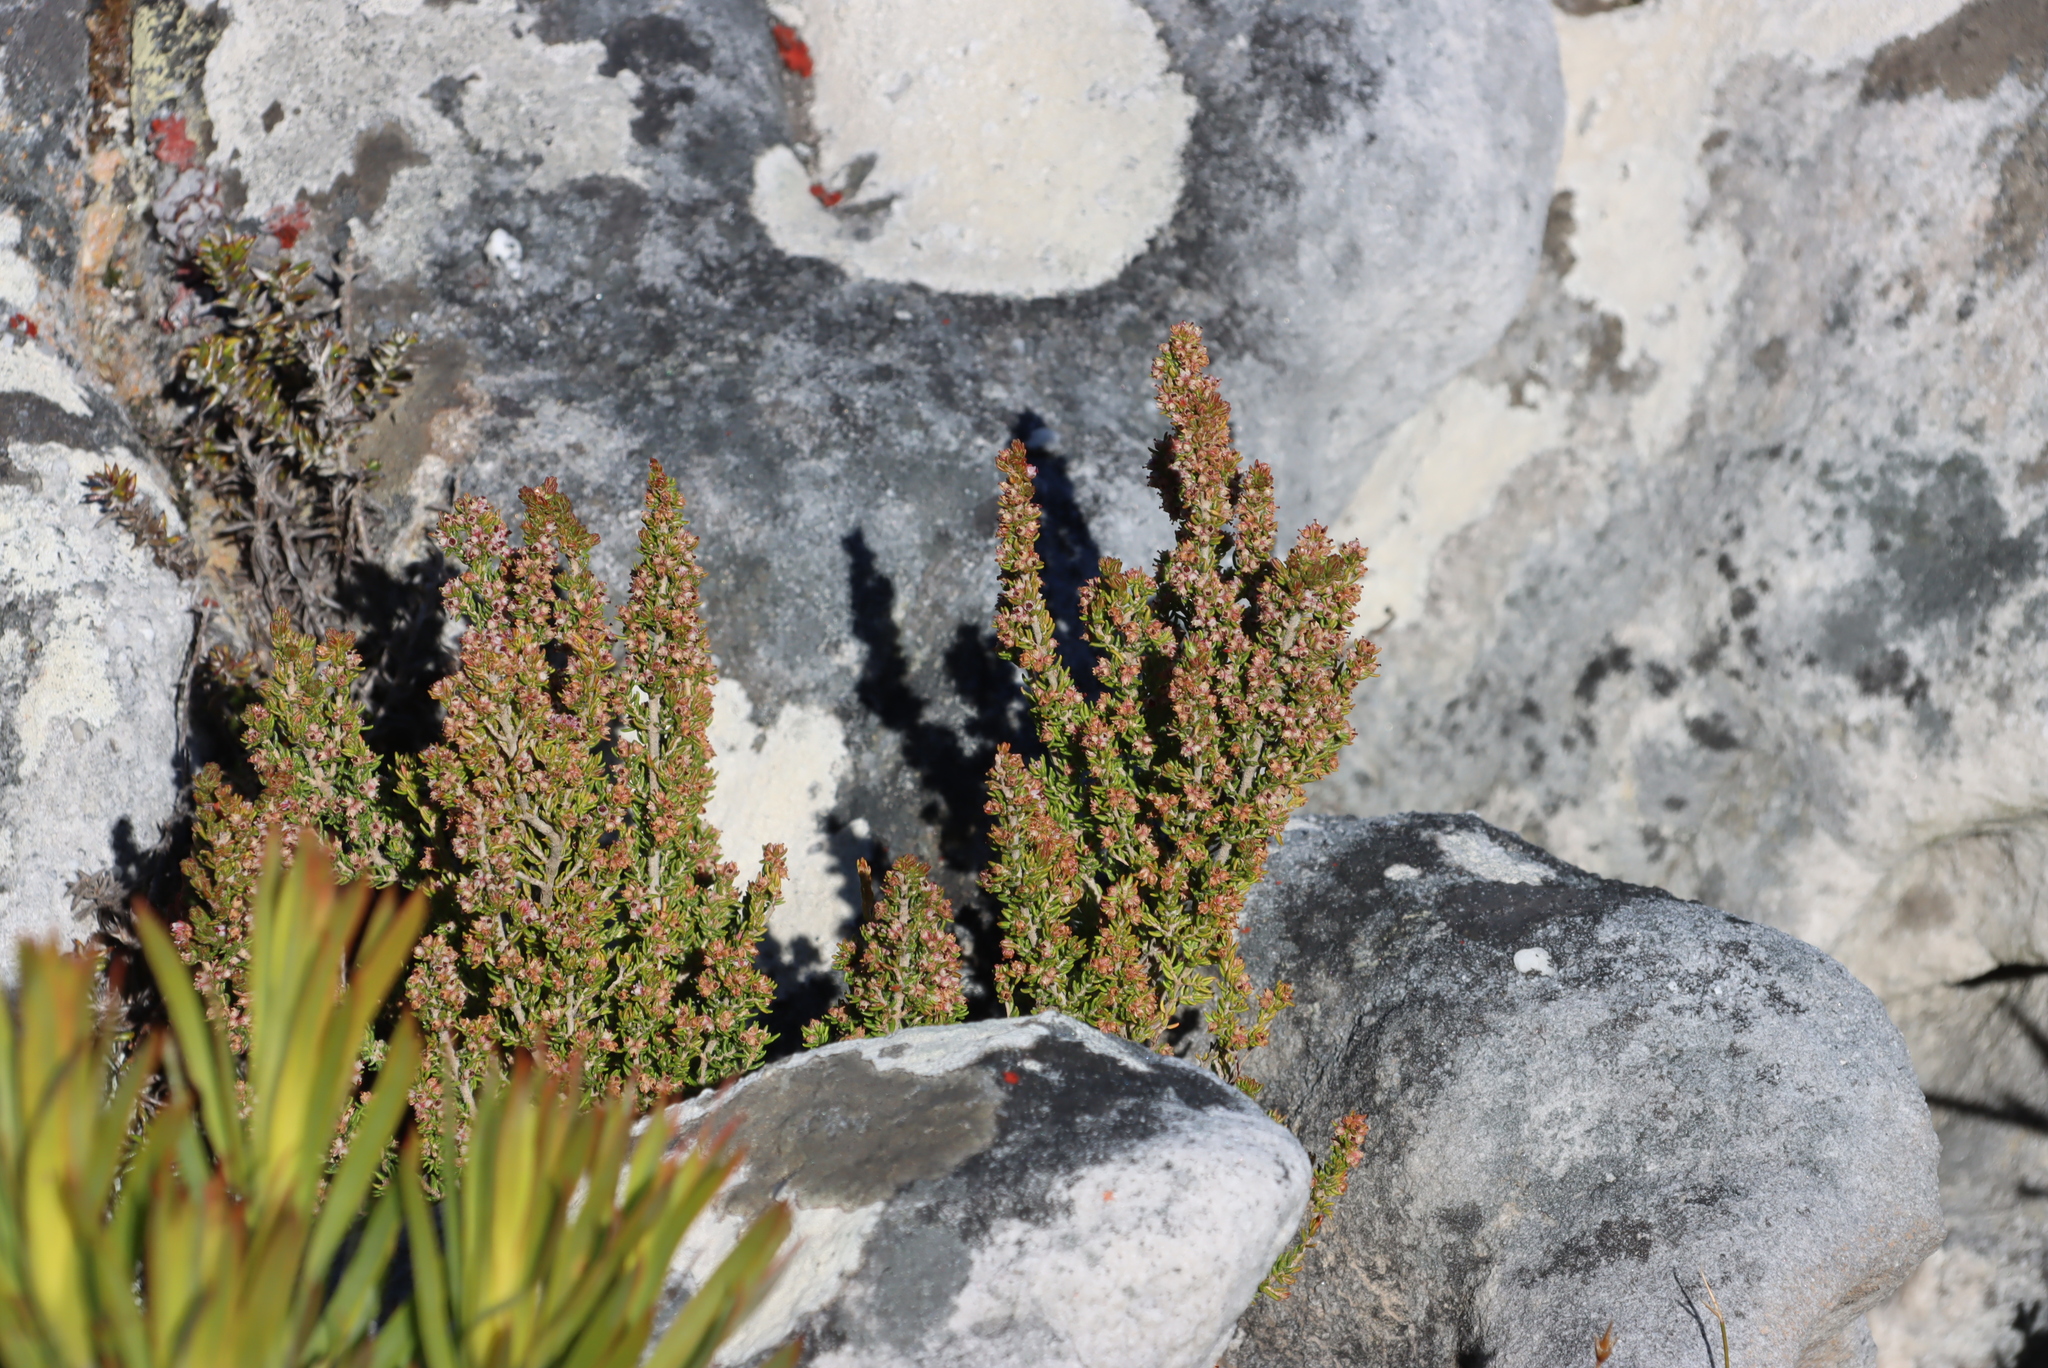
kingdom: Plantae
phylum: Tracheophyta
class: Magnoliopsida
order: Ericales
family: Ericaceae
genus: Erica
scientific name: Erica hispidula
